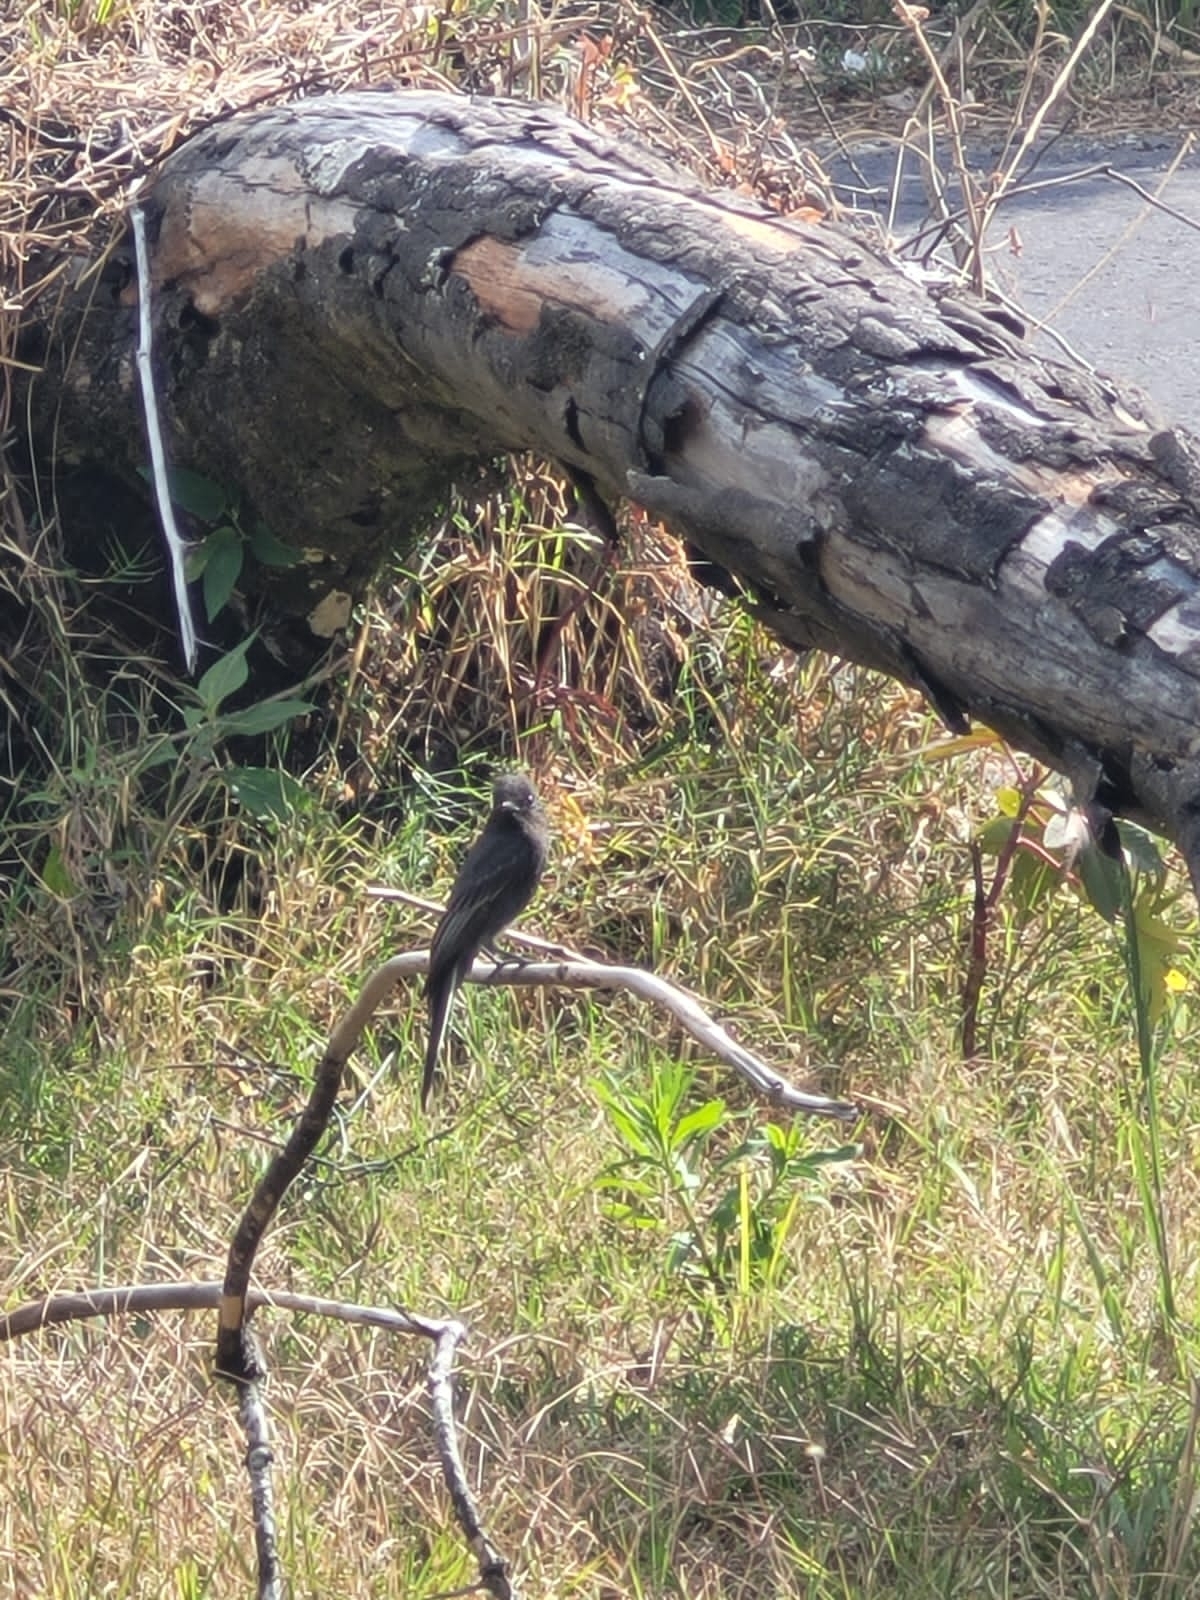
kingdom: Animalia
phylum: Chordata
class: Aves
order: Passeriformes
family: Tyrannidae
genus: Sayornis
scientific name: Sayornis nigricans
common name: Black phoebe
